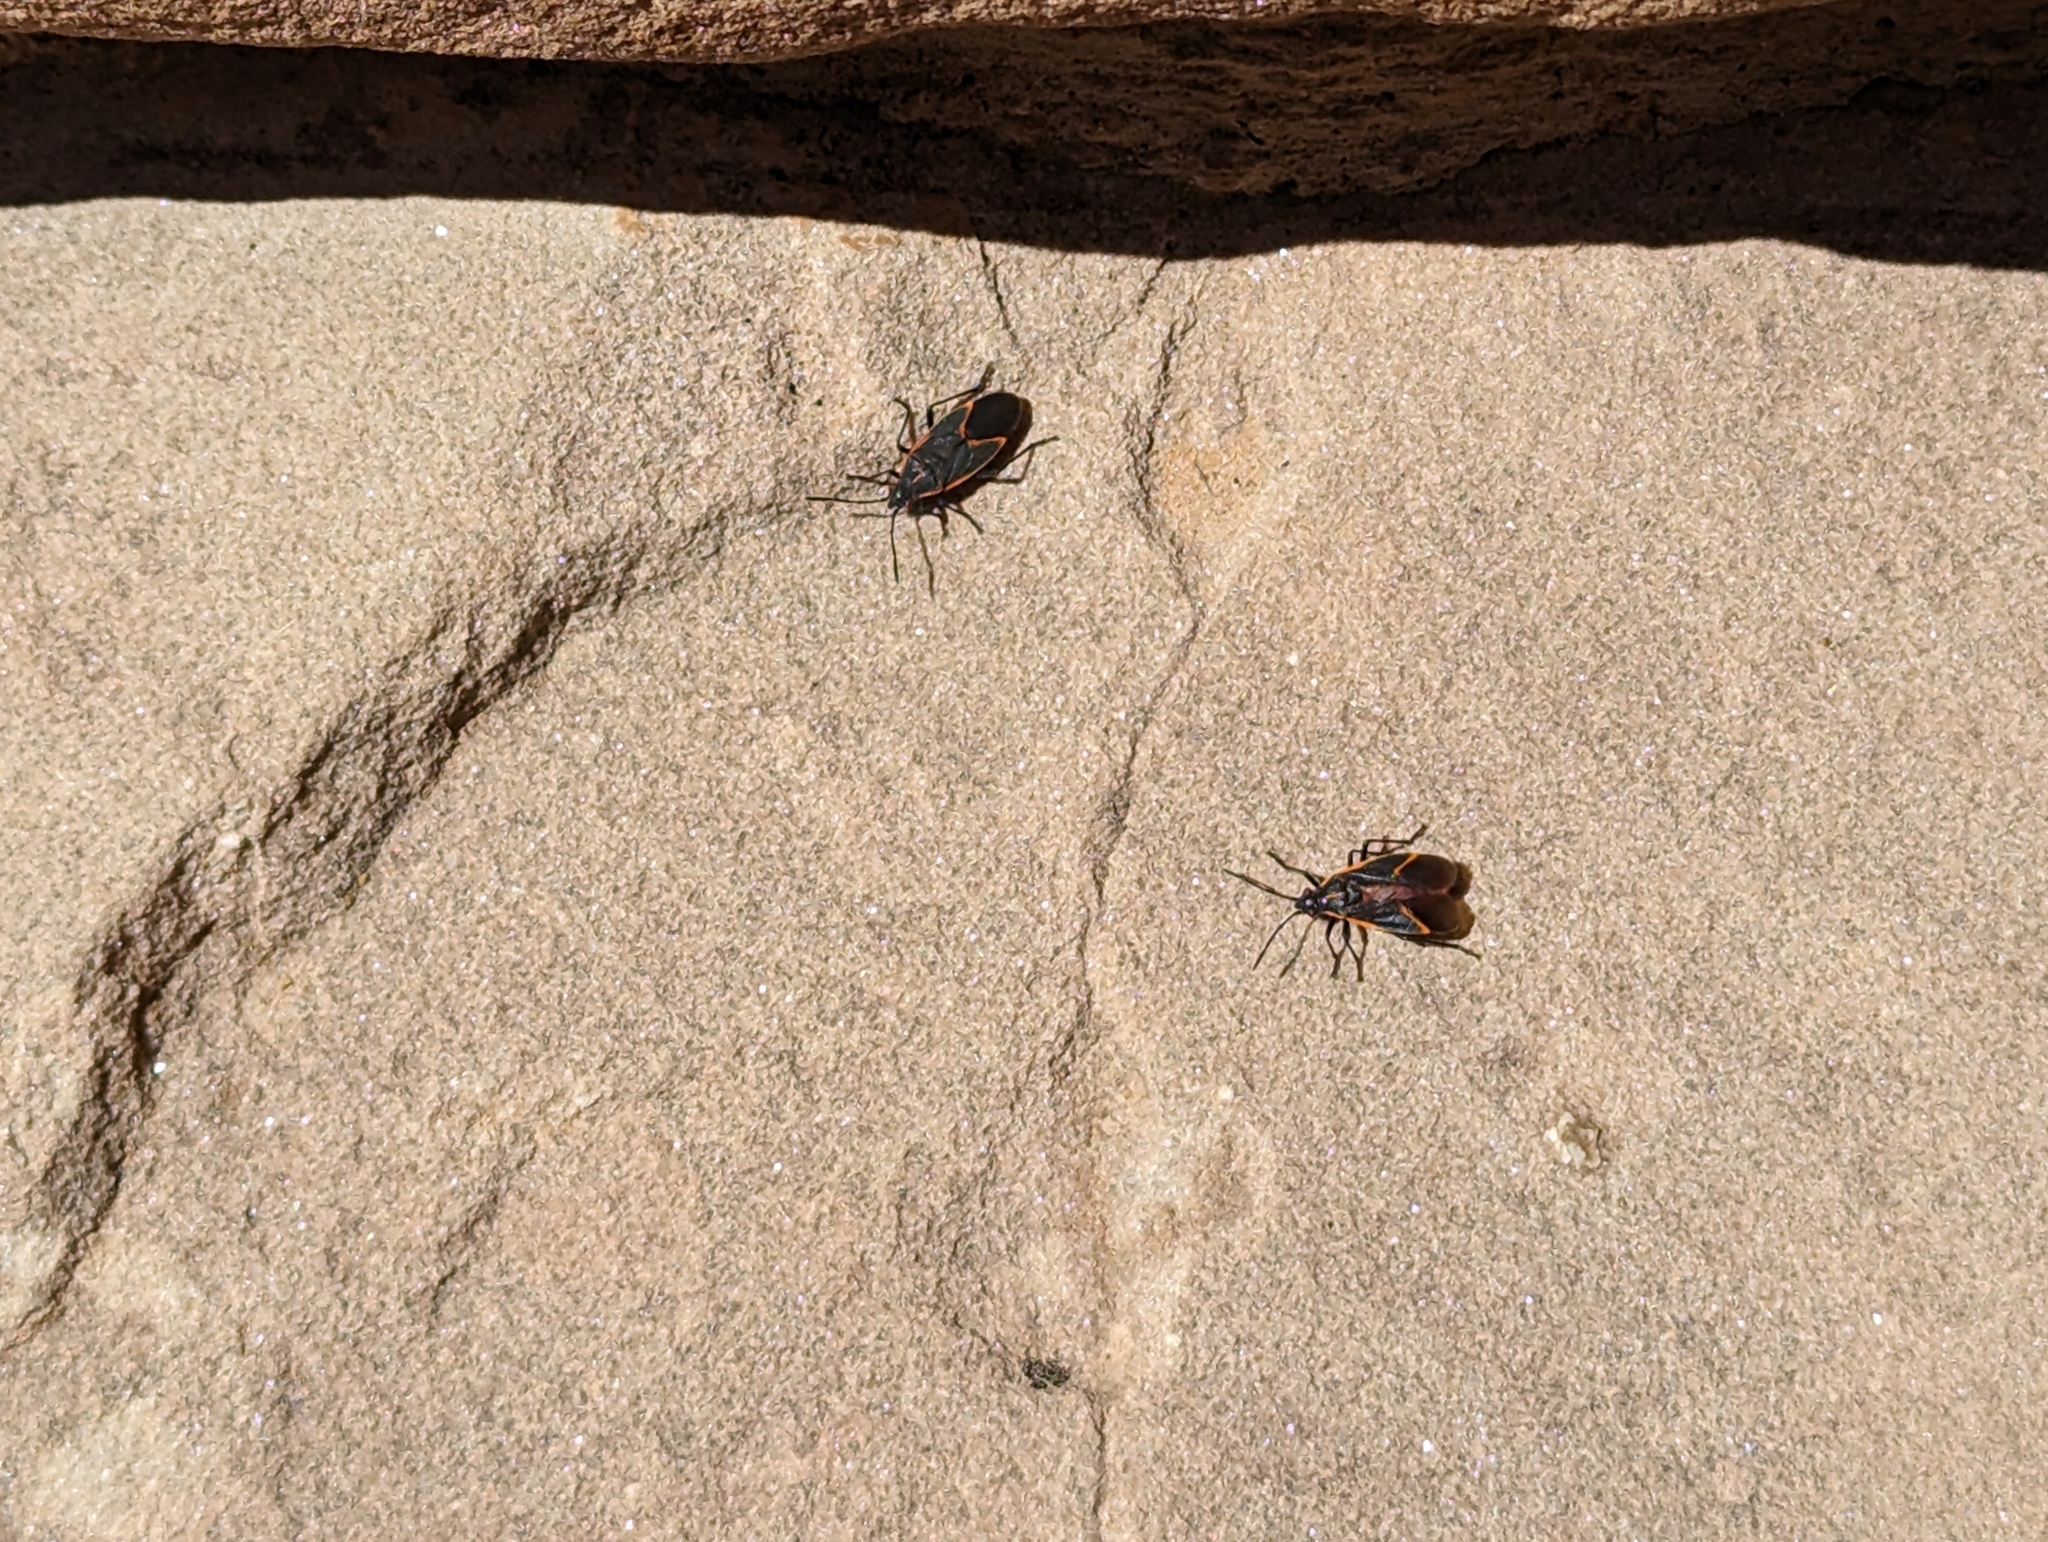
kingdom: Animalia
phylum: Arthropoda
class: Insecta
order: Hemiptera
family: Rhopalidae
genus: Boisea
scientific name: Boisea trivittata
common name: Boxelder bug
